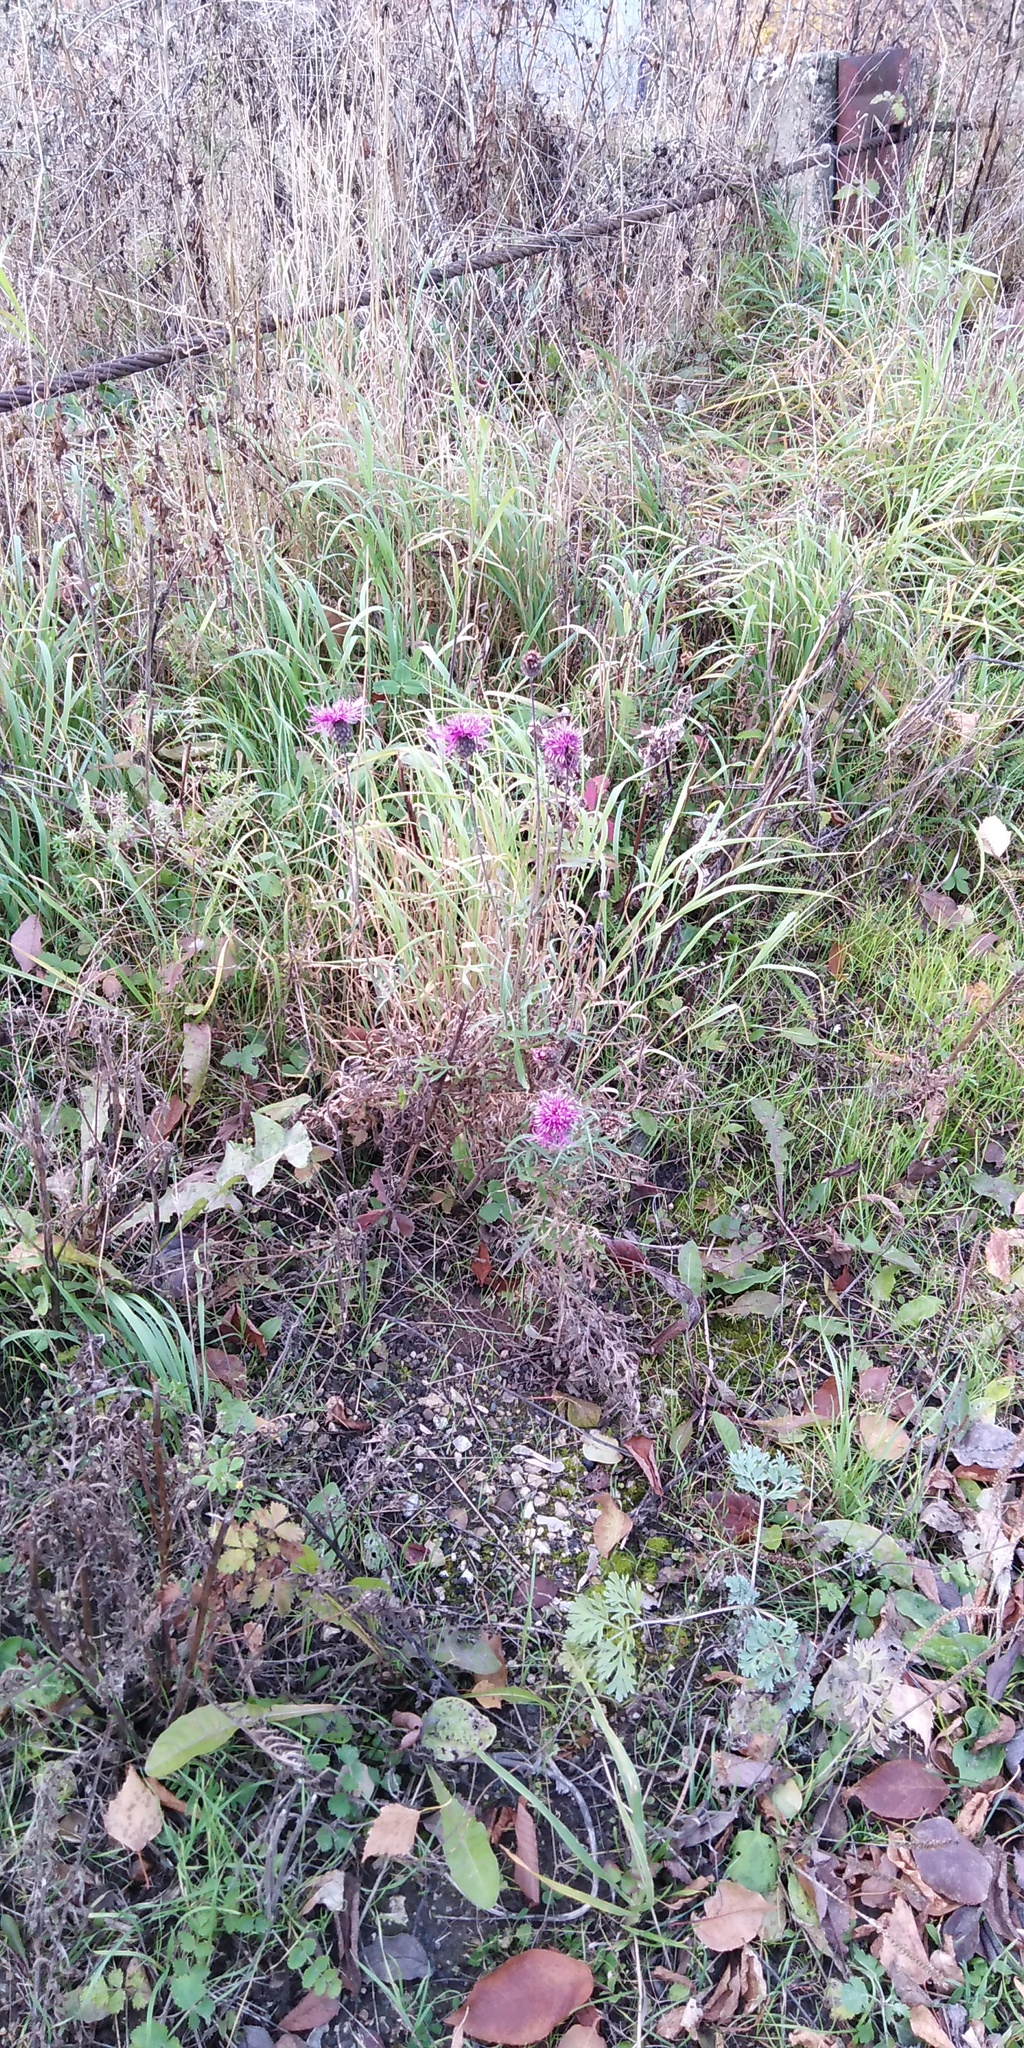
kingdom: Plantae
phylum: Tracheophyta
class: Magnoliopsida
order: Asterales
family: Asteraceae
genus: Centaurea
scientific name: Centaurea scabiosa
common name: Greater knapweed
